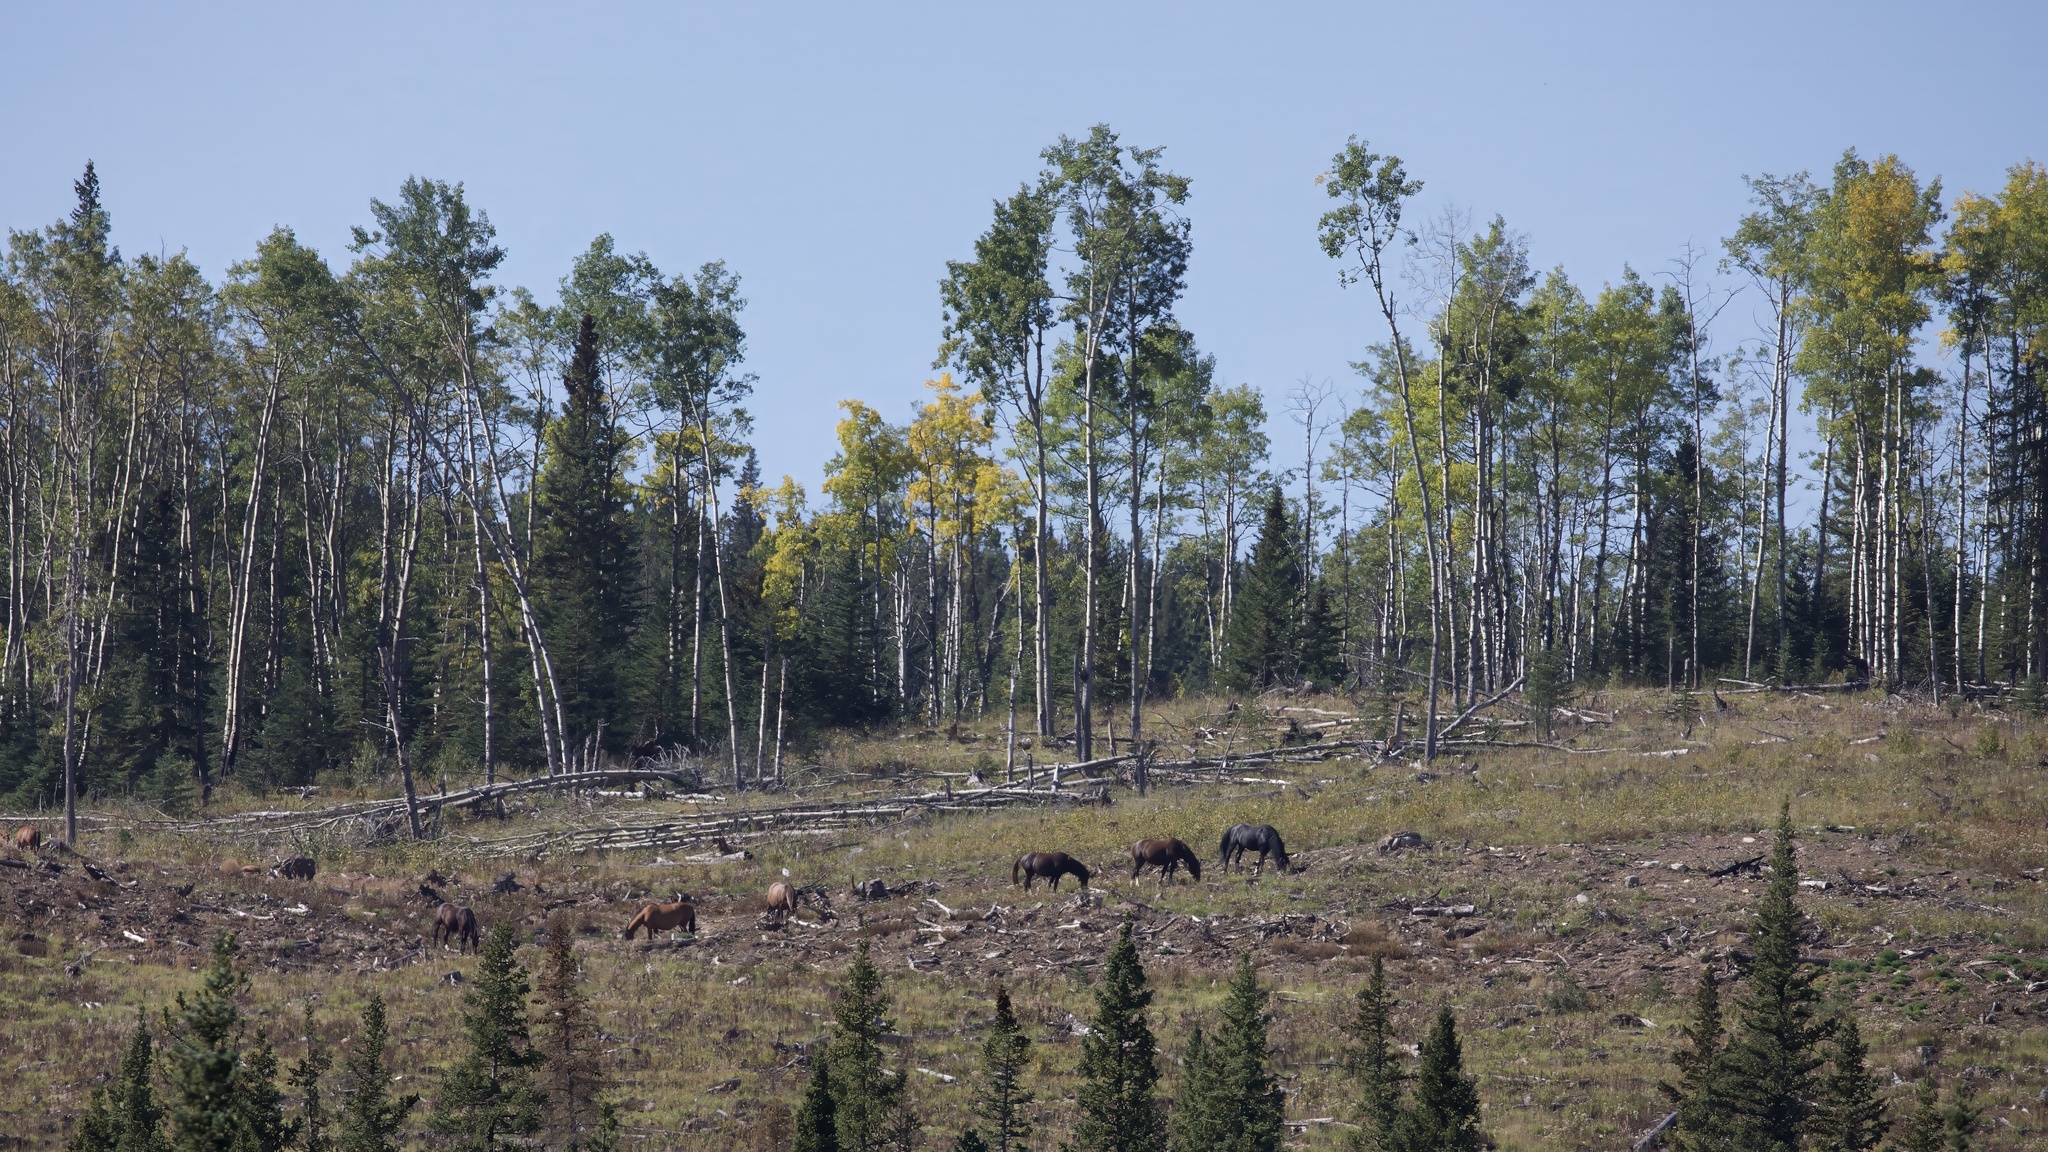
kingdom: Animalia
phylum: Chordata
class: Mammalia
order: Perissodactyla
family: Equidae
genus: Equus
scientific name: Equus caballus
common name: Horse
